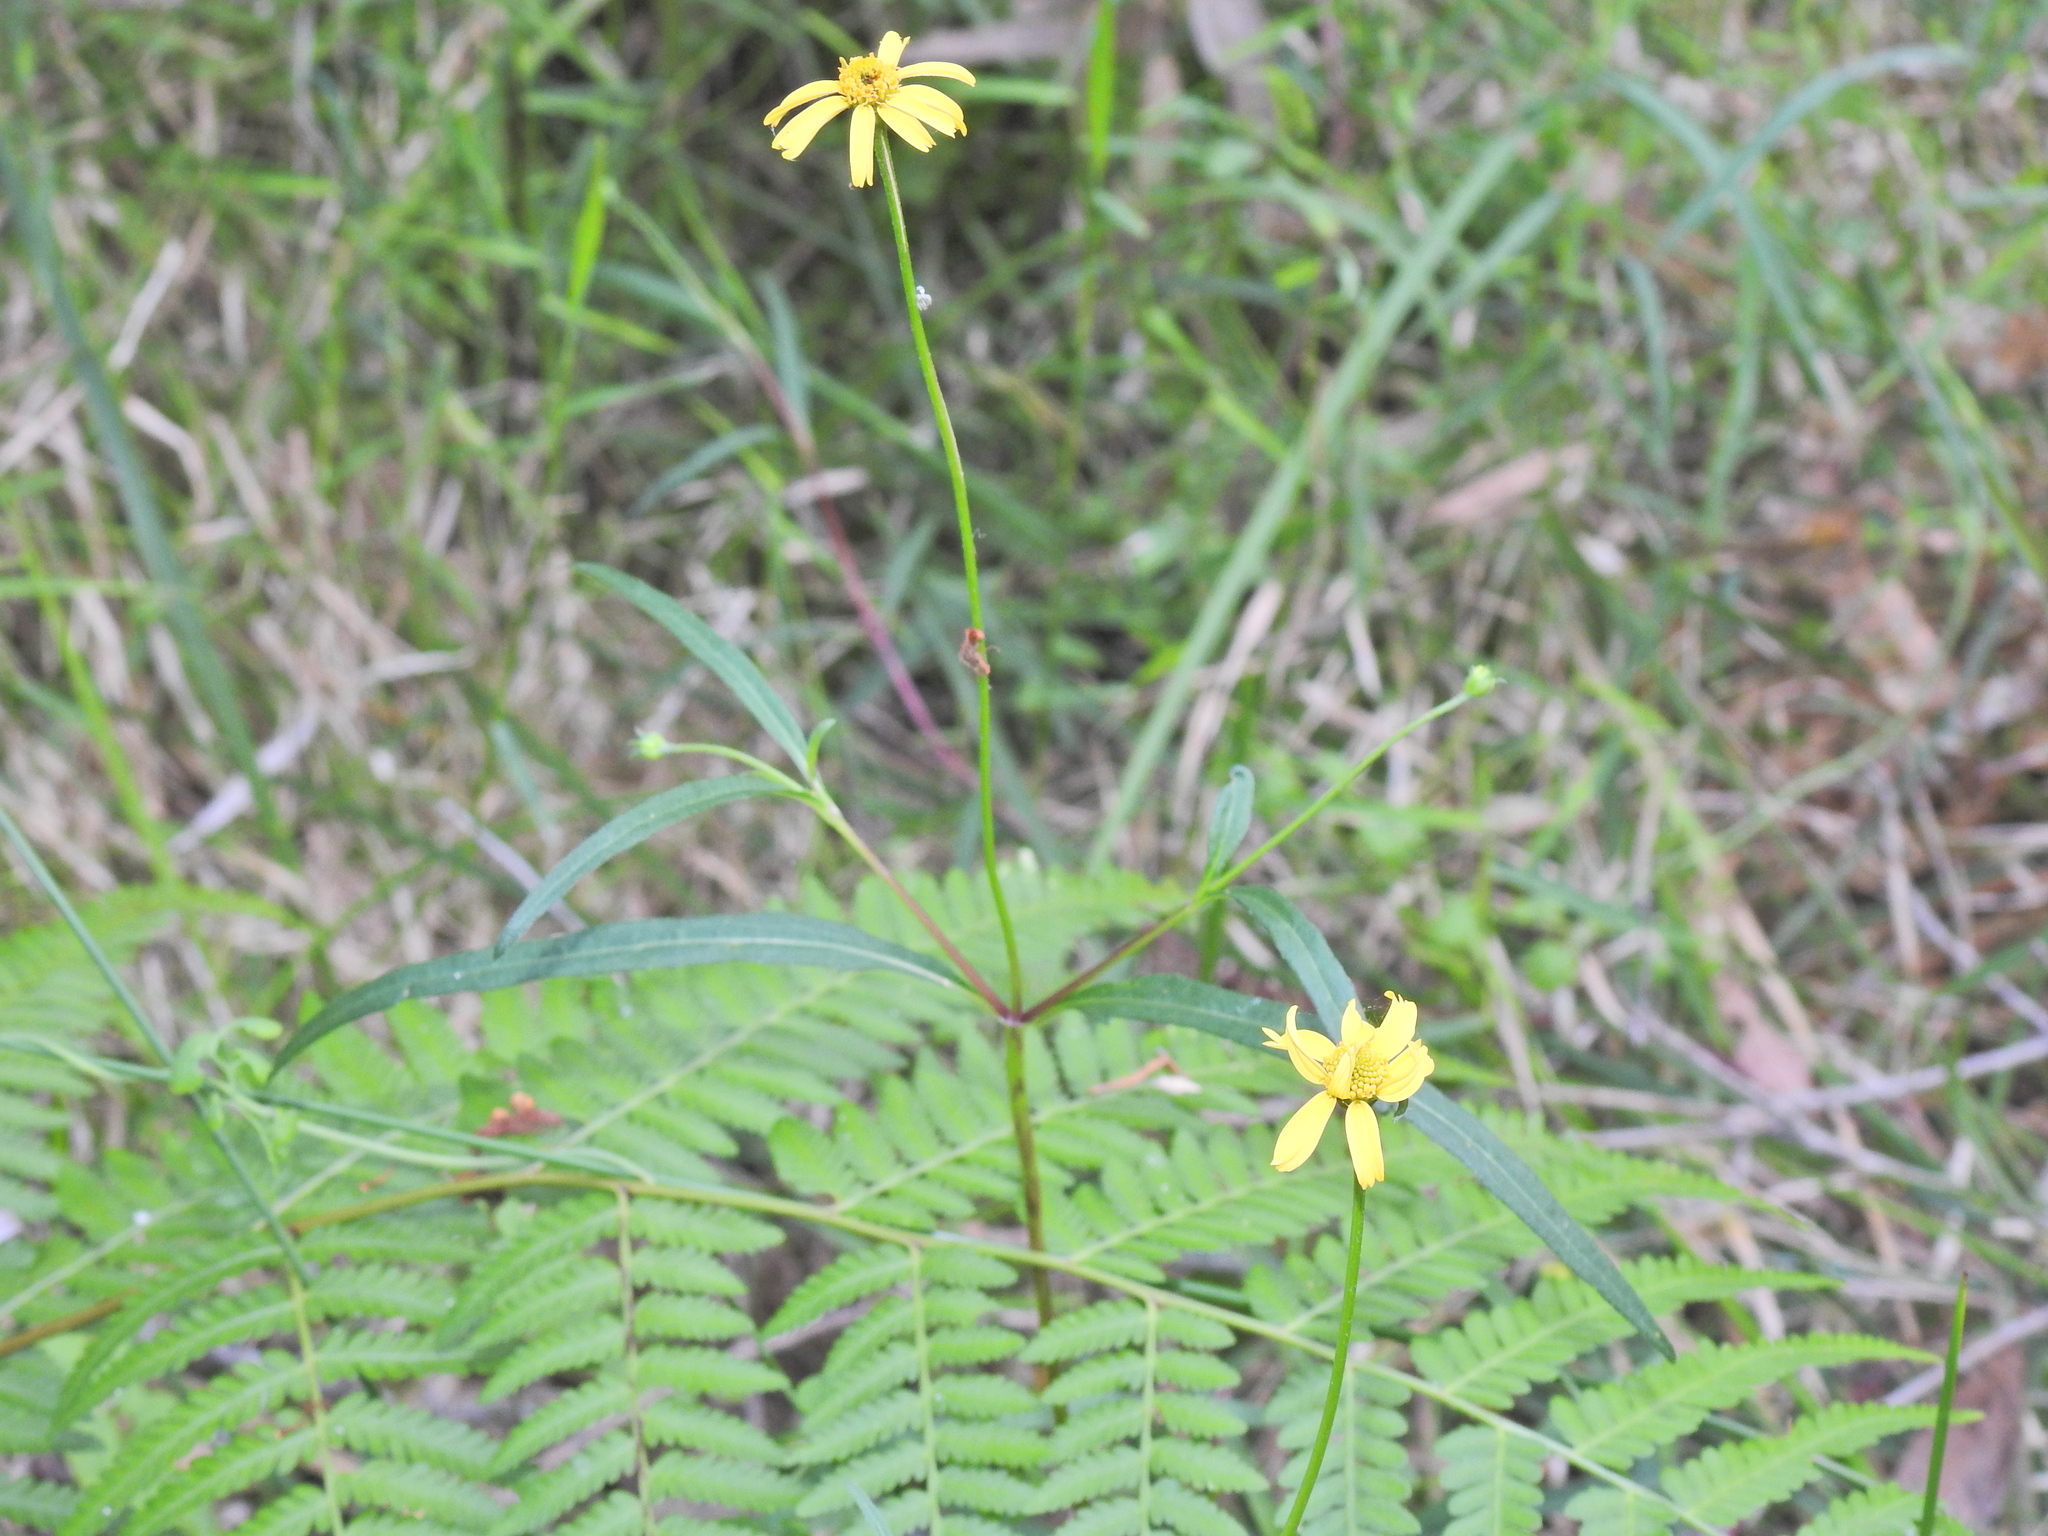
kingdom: Plantae
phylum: Tracheophyta
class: Magnoliopsida
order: Asterales
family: Asteraceae
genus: Acmella
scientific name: Acmella grandiflora
